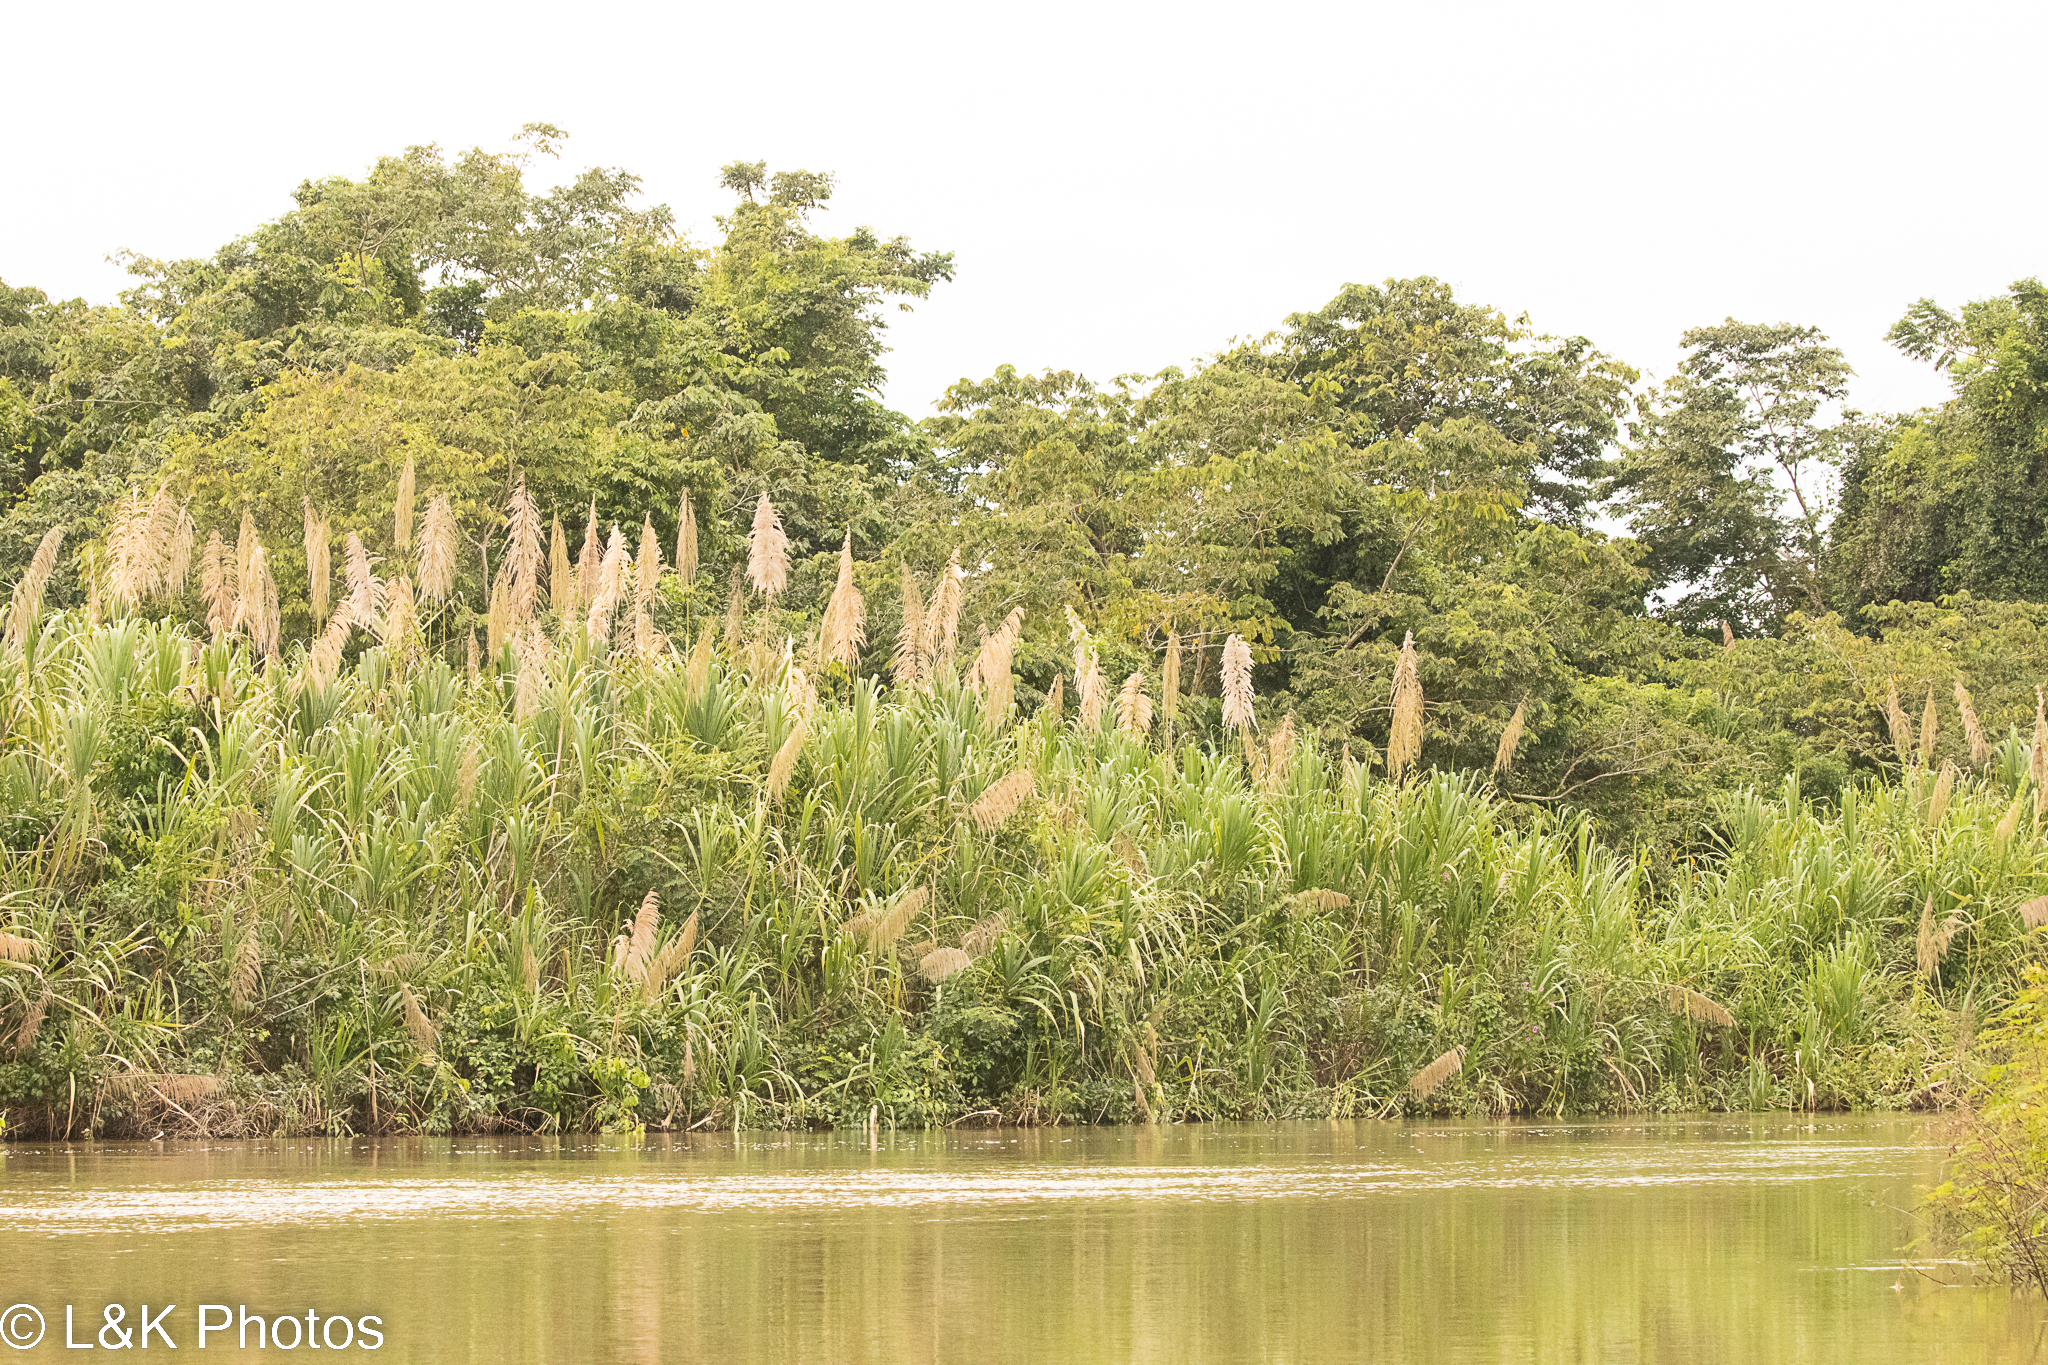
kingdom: Plantae
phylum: Tracheophyta
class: Liliopsida
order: Poales
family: Poaceae
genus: Gynerium
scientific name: Gynerium sagittatum
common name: Wild cane
